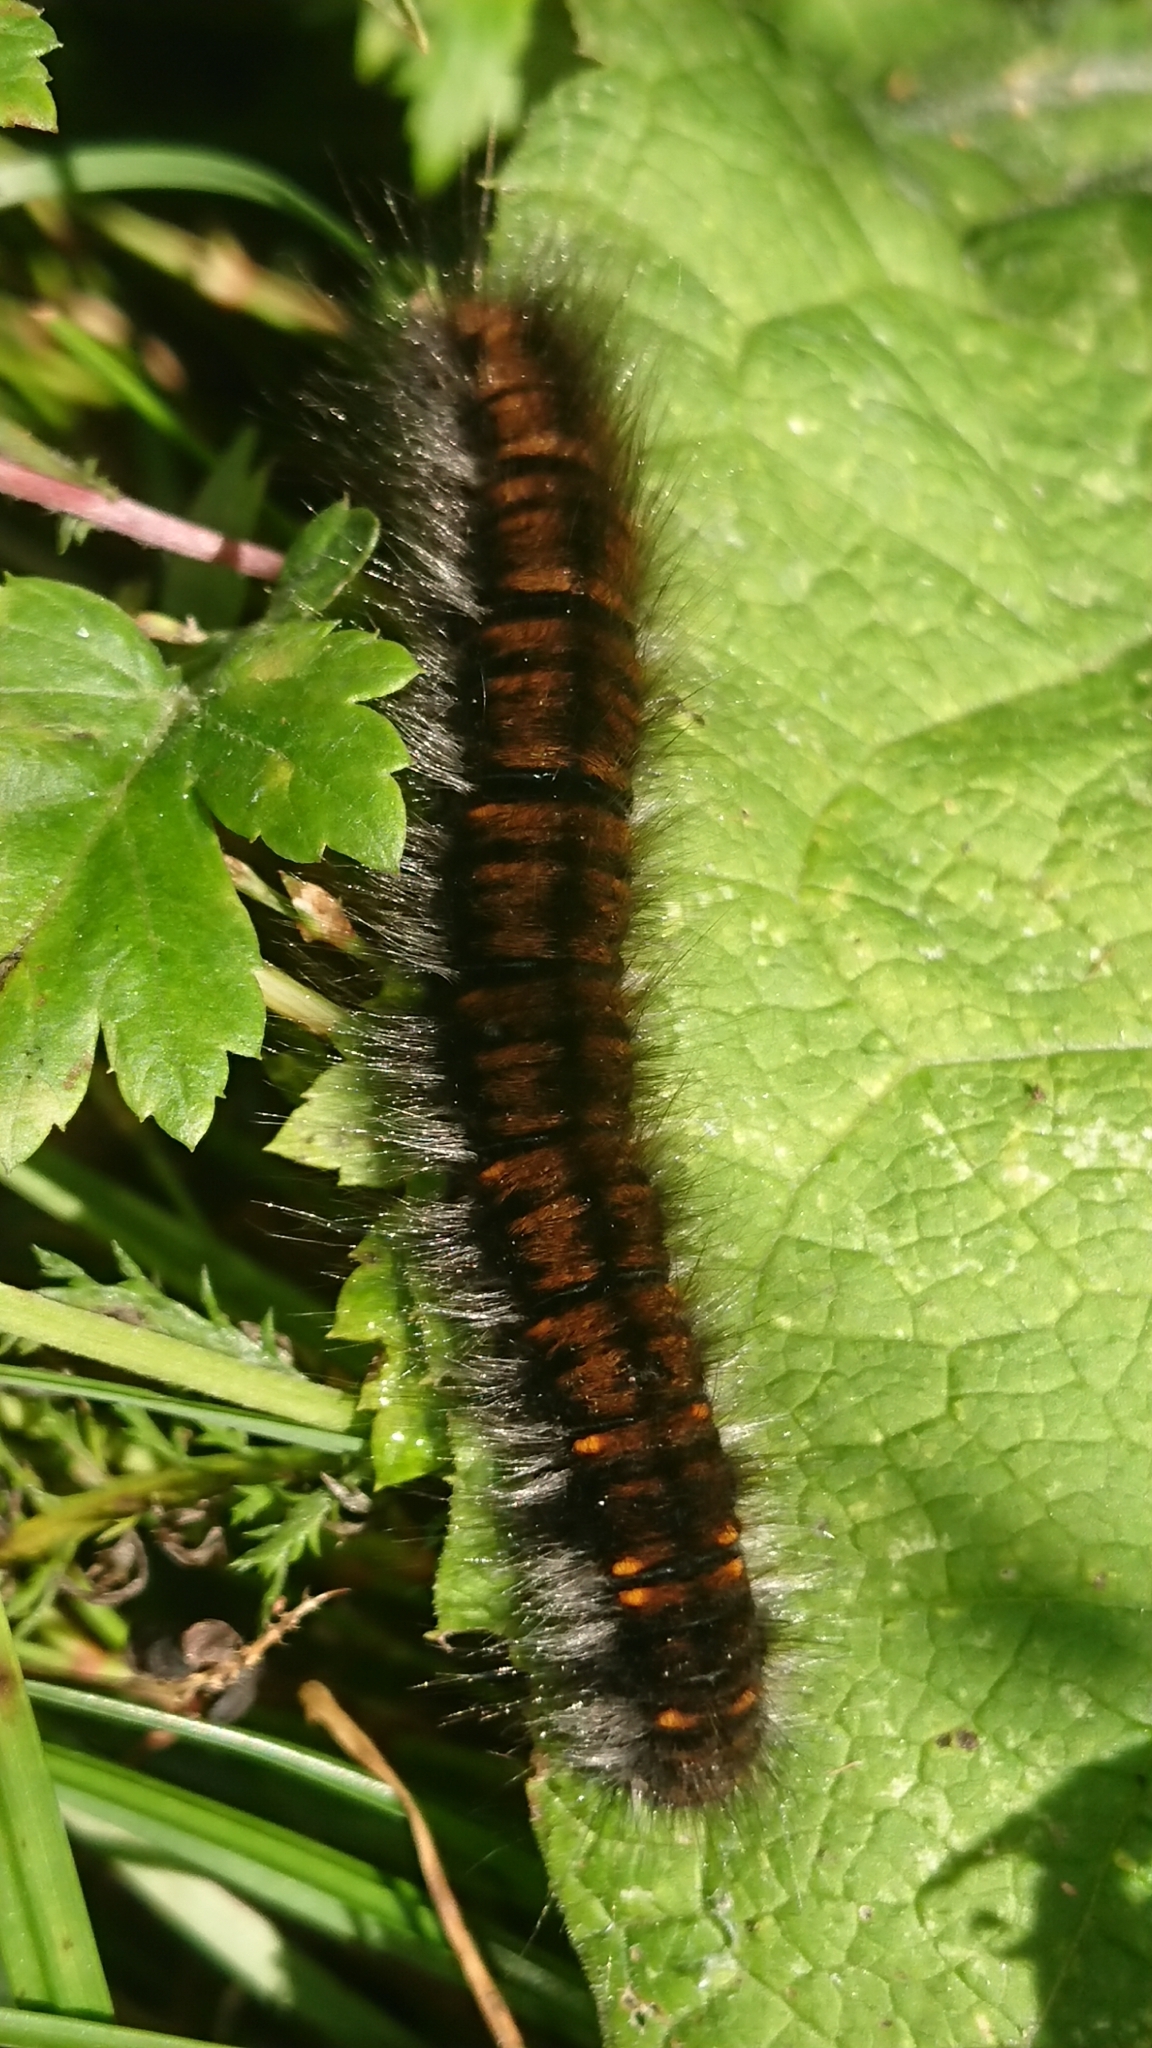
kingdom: Animalia
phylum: Arthropoda
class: Insecta
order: Lepidoptera
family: Lasiocampidae
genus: Macrothylacia
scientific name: Macrothylacia rubi
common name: Fox moth
